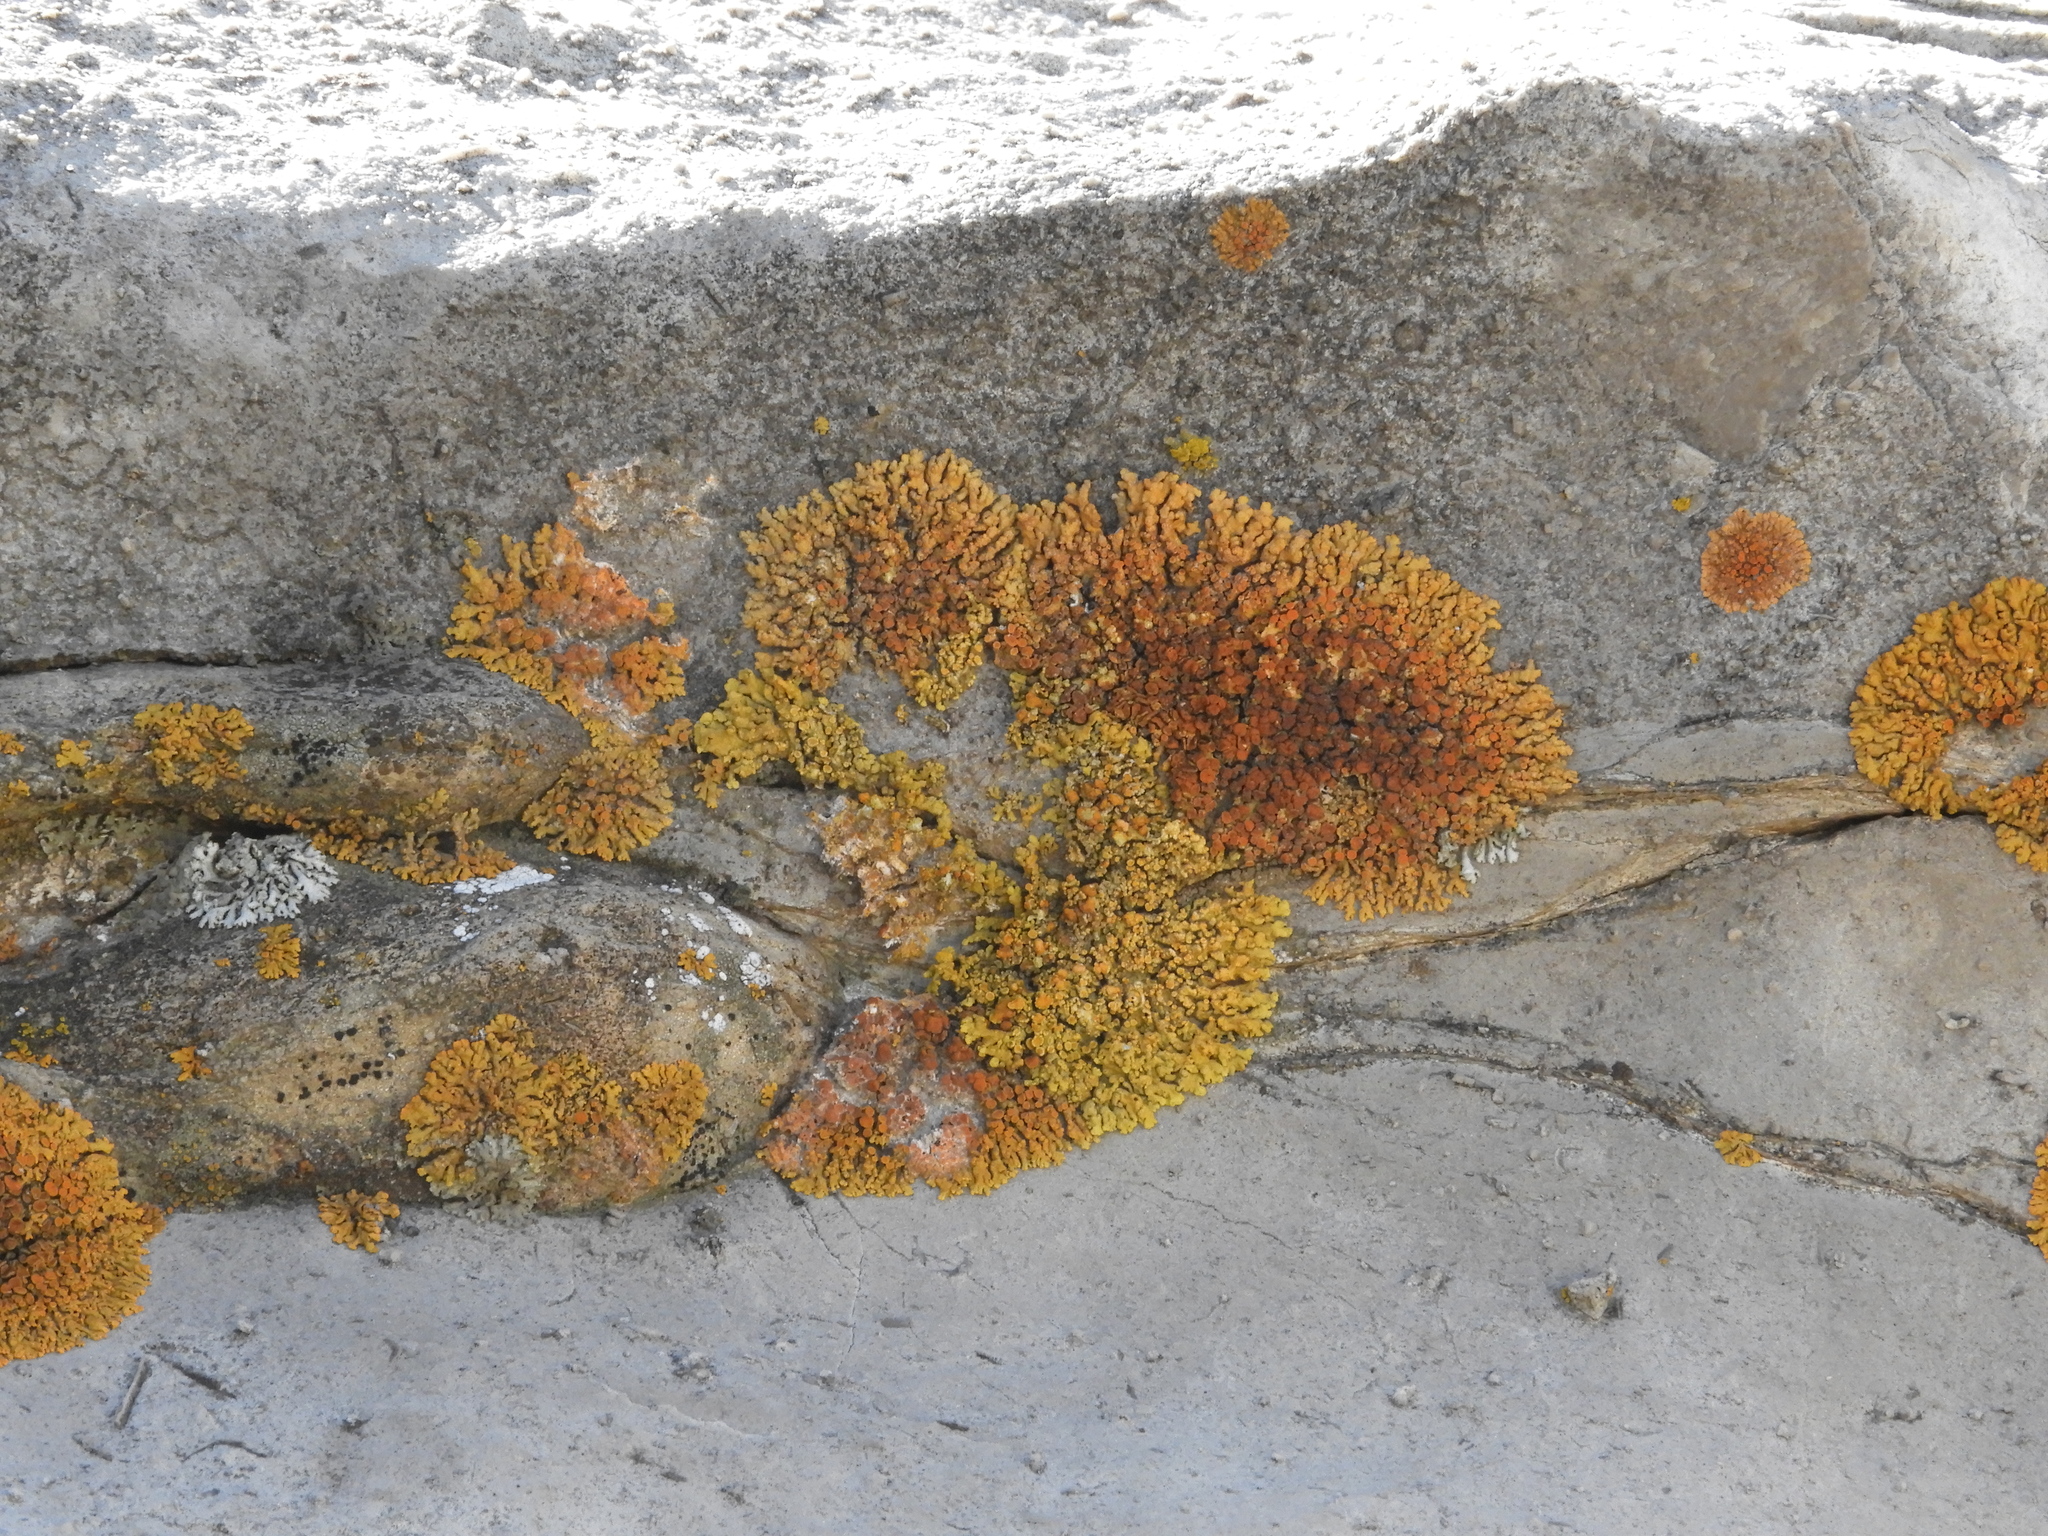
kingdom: Fungi
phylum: Ascomycota
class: Lecanoromycetes
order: Teloschistales
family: Teloschistaceae
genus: Xanthoria
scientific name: Xanthoria elegans
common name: Elegant sunburst lichen
